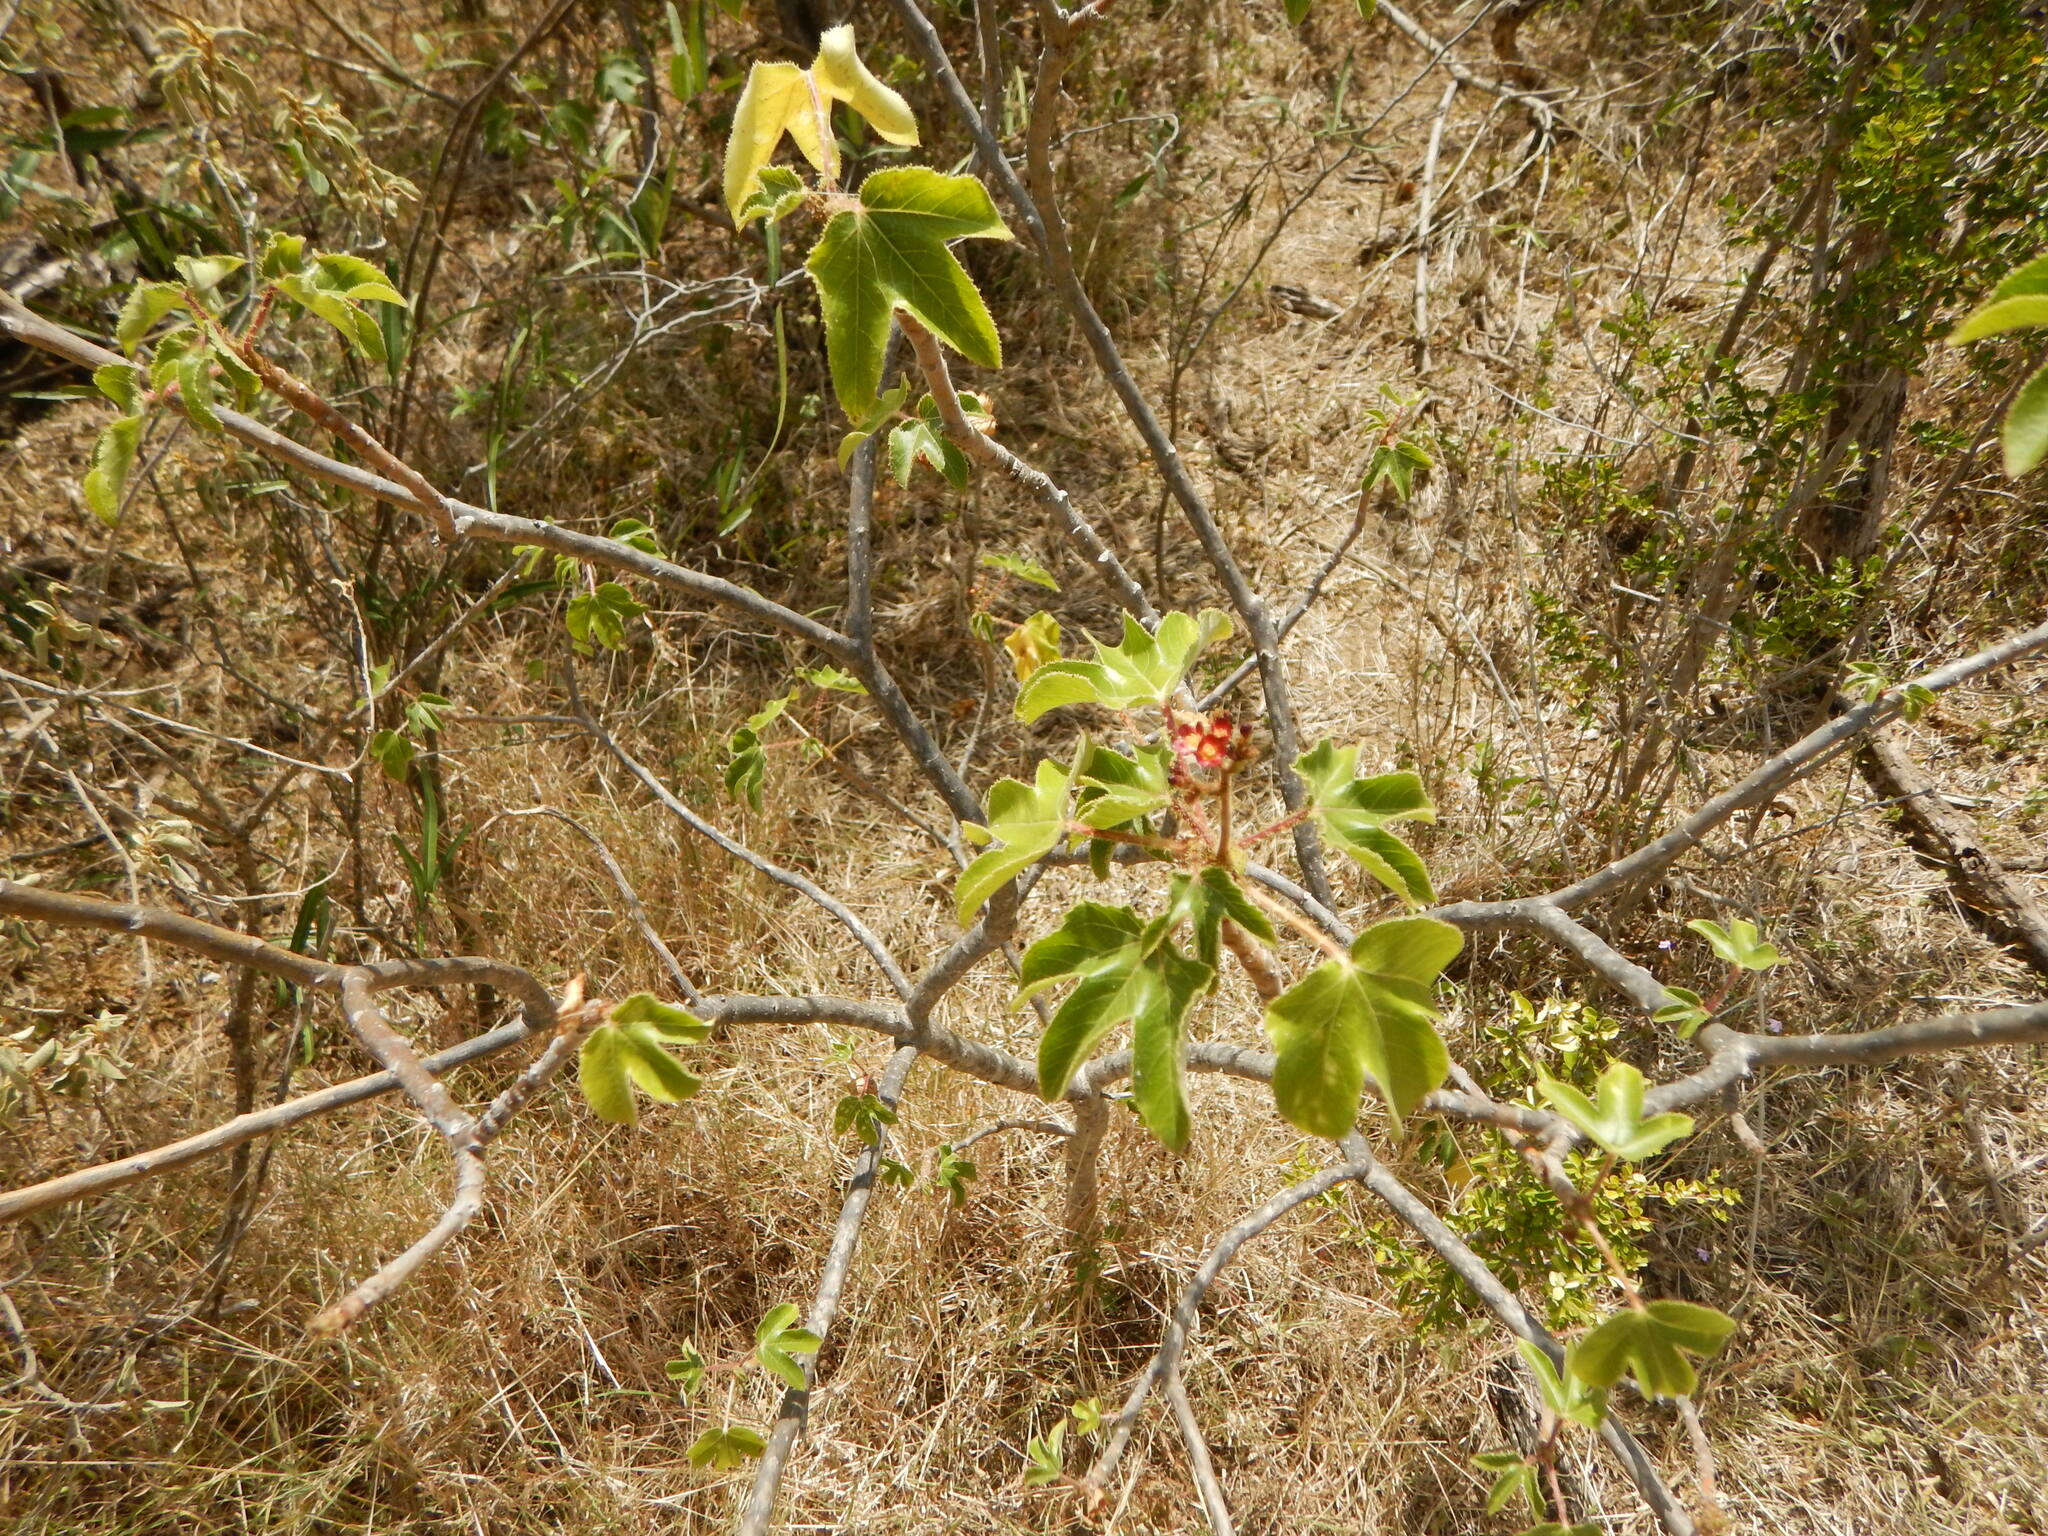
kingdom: Plantae
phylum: Tracheophyta
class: Magnoliopsida
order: Malpighiales
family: Euphorbiaceae
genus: Jatropha
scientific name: Jatropha gossypiifolia
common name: Bellyache bush
